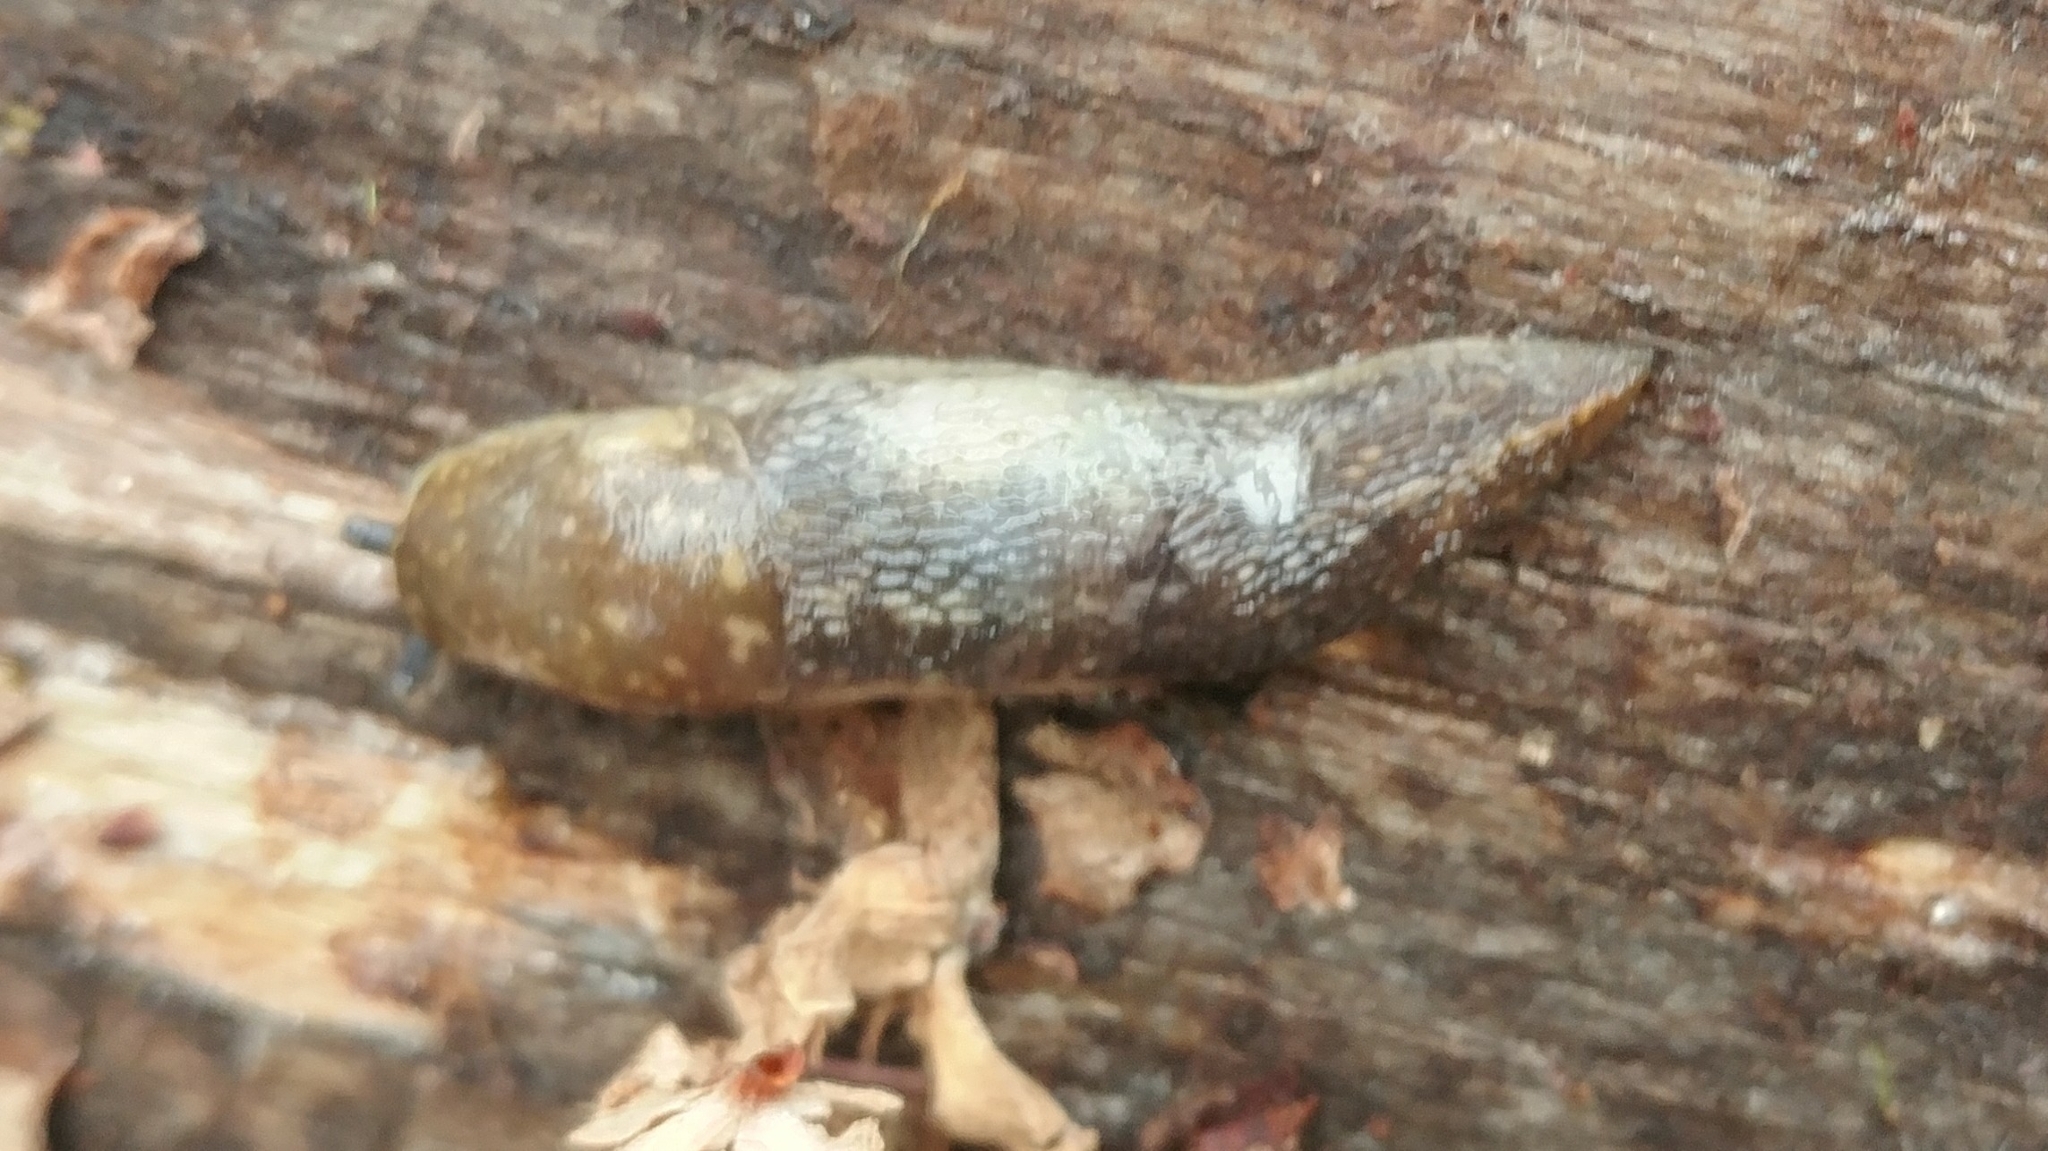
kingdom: Animalia
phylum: Mollusca
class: Gastropoda
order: Stylommatophora
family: Limacidae
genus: Limacus
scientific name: Limacus flavus
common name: Yellow gardenslug
